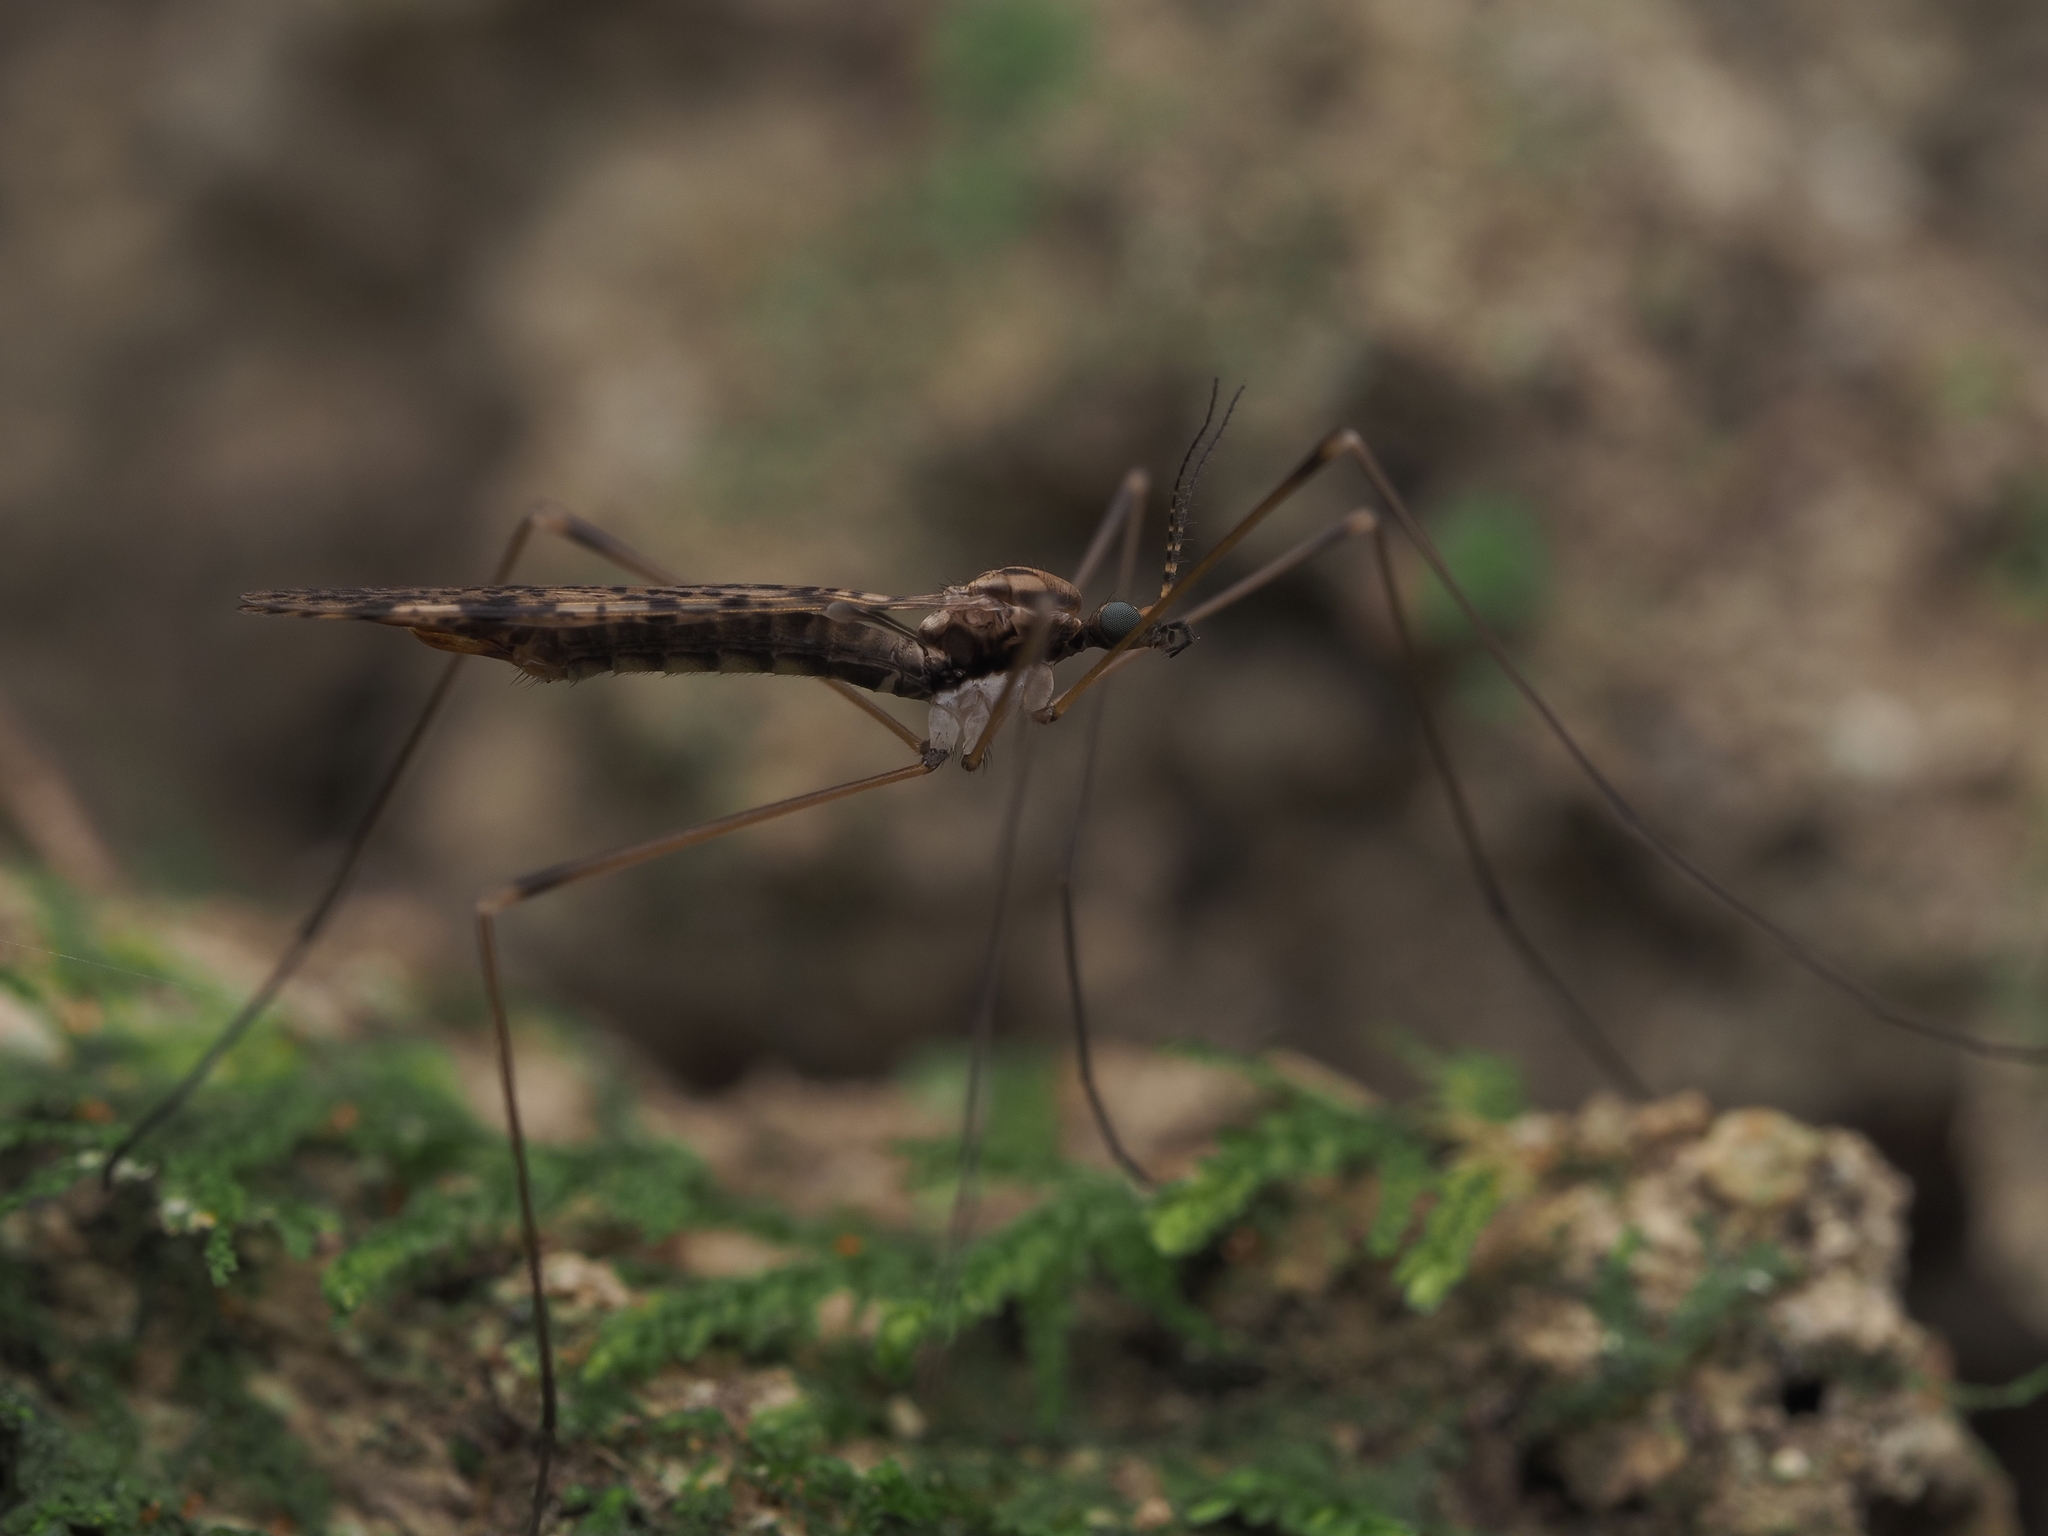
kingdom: Animalia
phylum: Arthropoda
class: Insecta
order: Diptera
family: Limoniidae
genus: Austrolimnophila
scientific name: Austrolimnophila leucomelas
